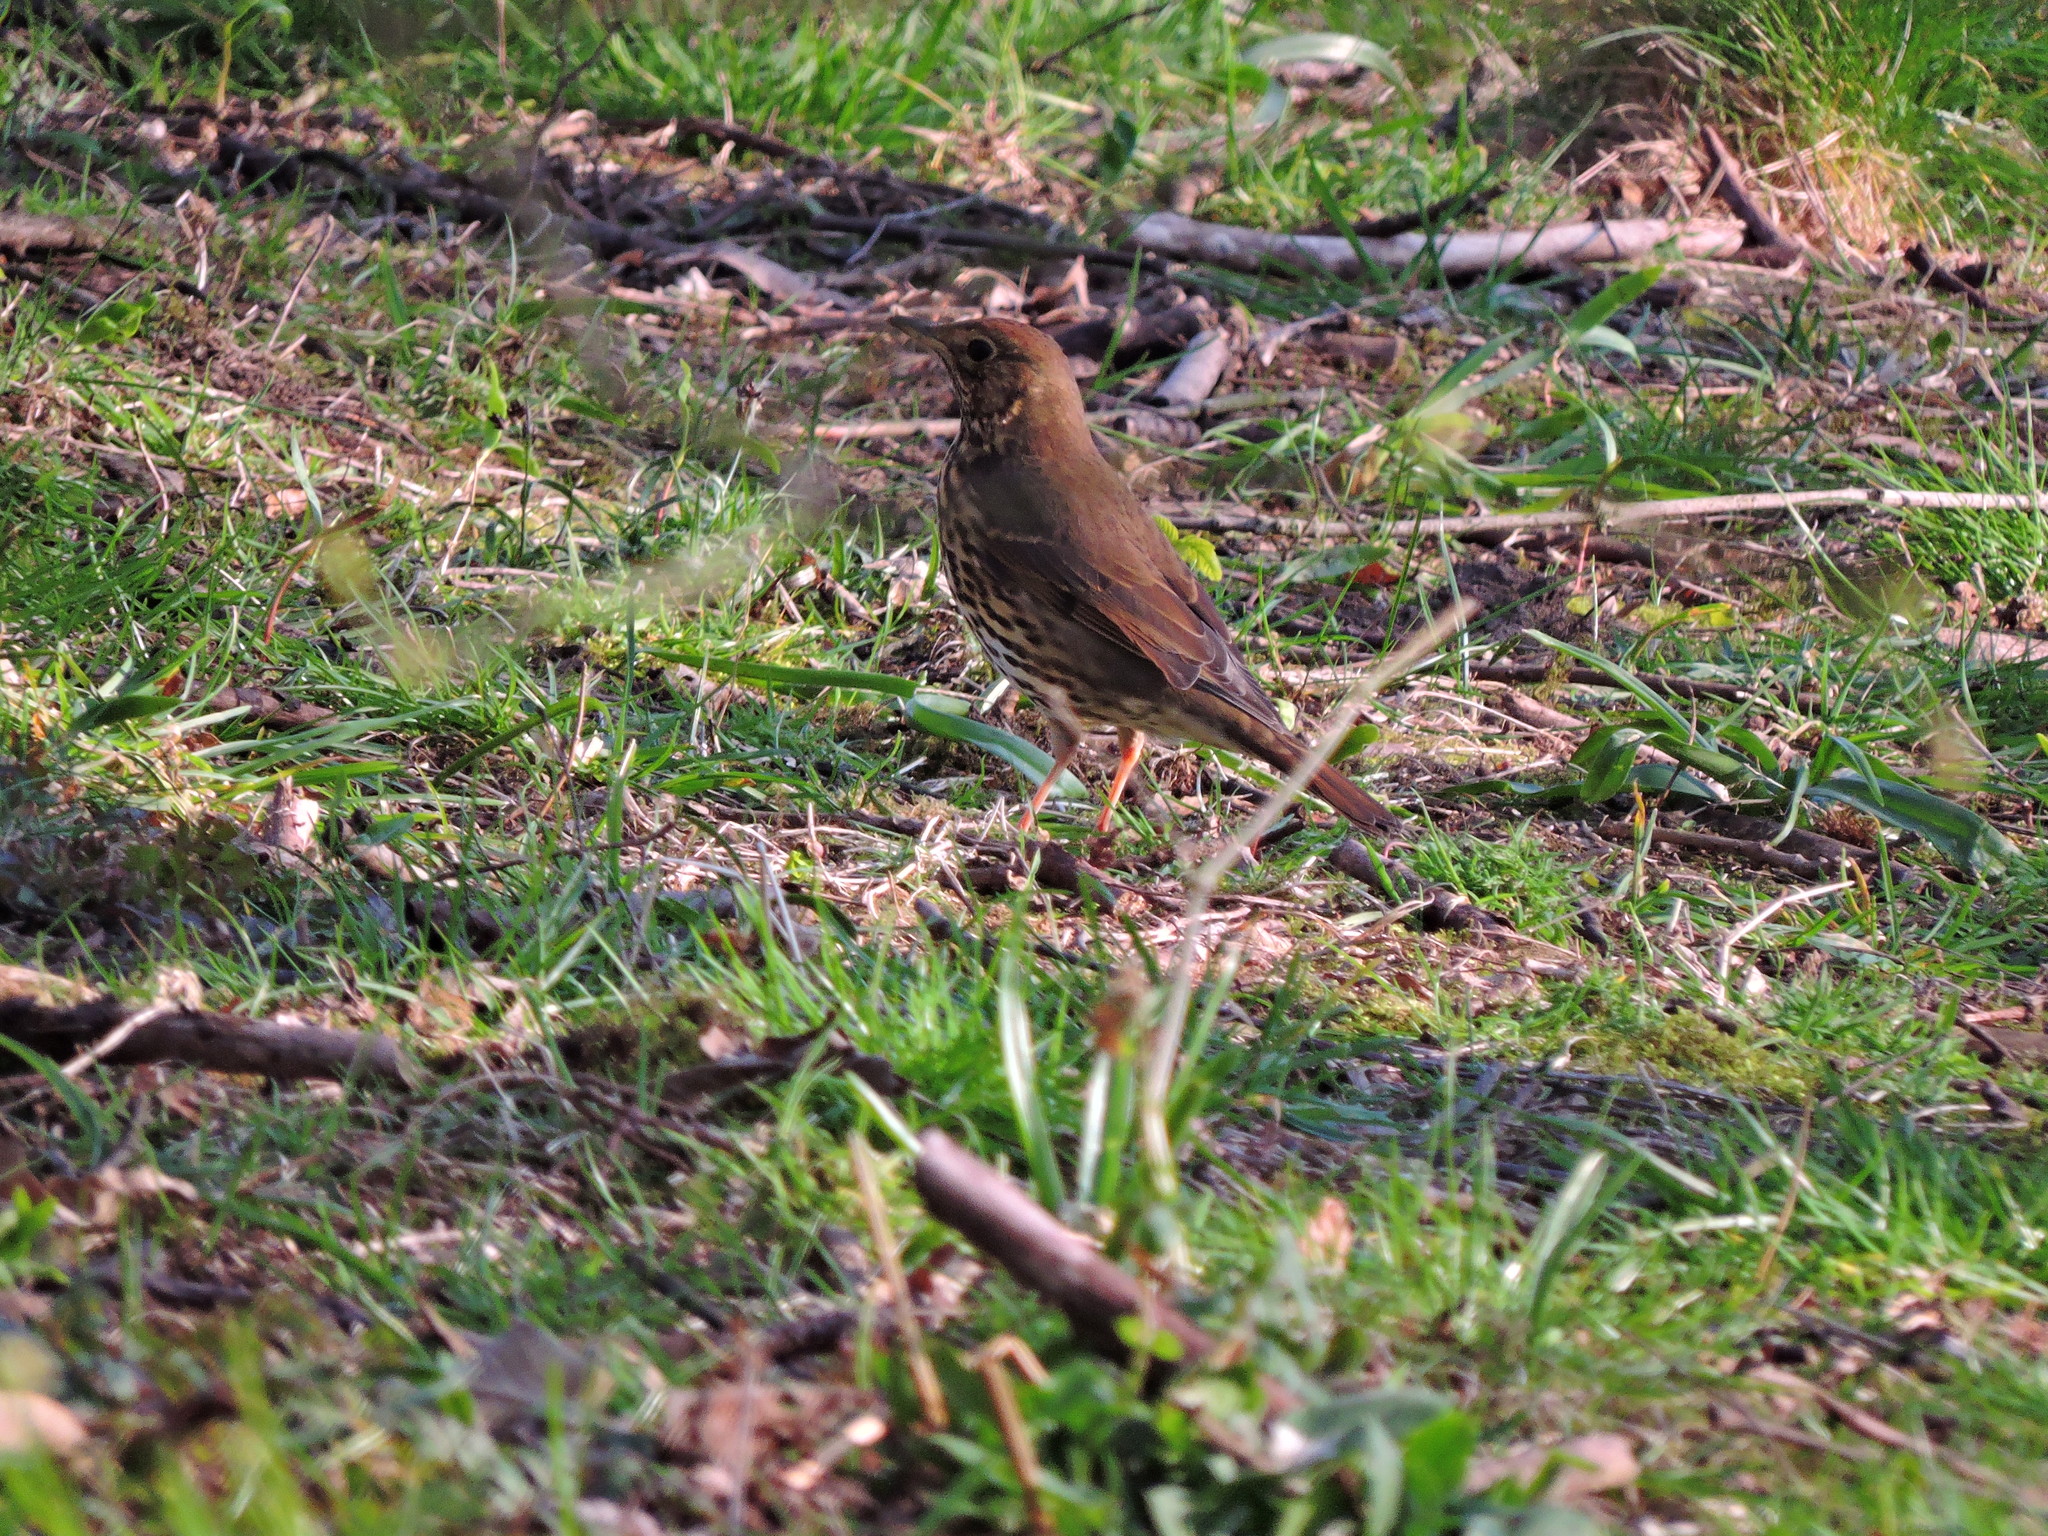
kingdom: Animalia
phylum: Chordata
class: Aves
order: Passeriformes
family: Turdidae
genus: Turdus
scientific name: Turdus philomelos
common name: Song thrush
